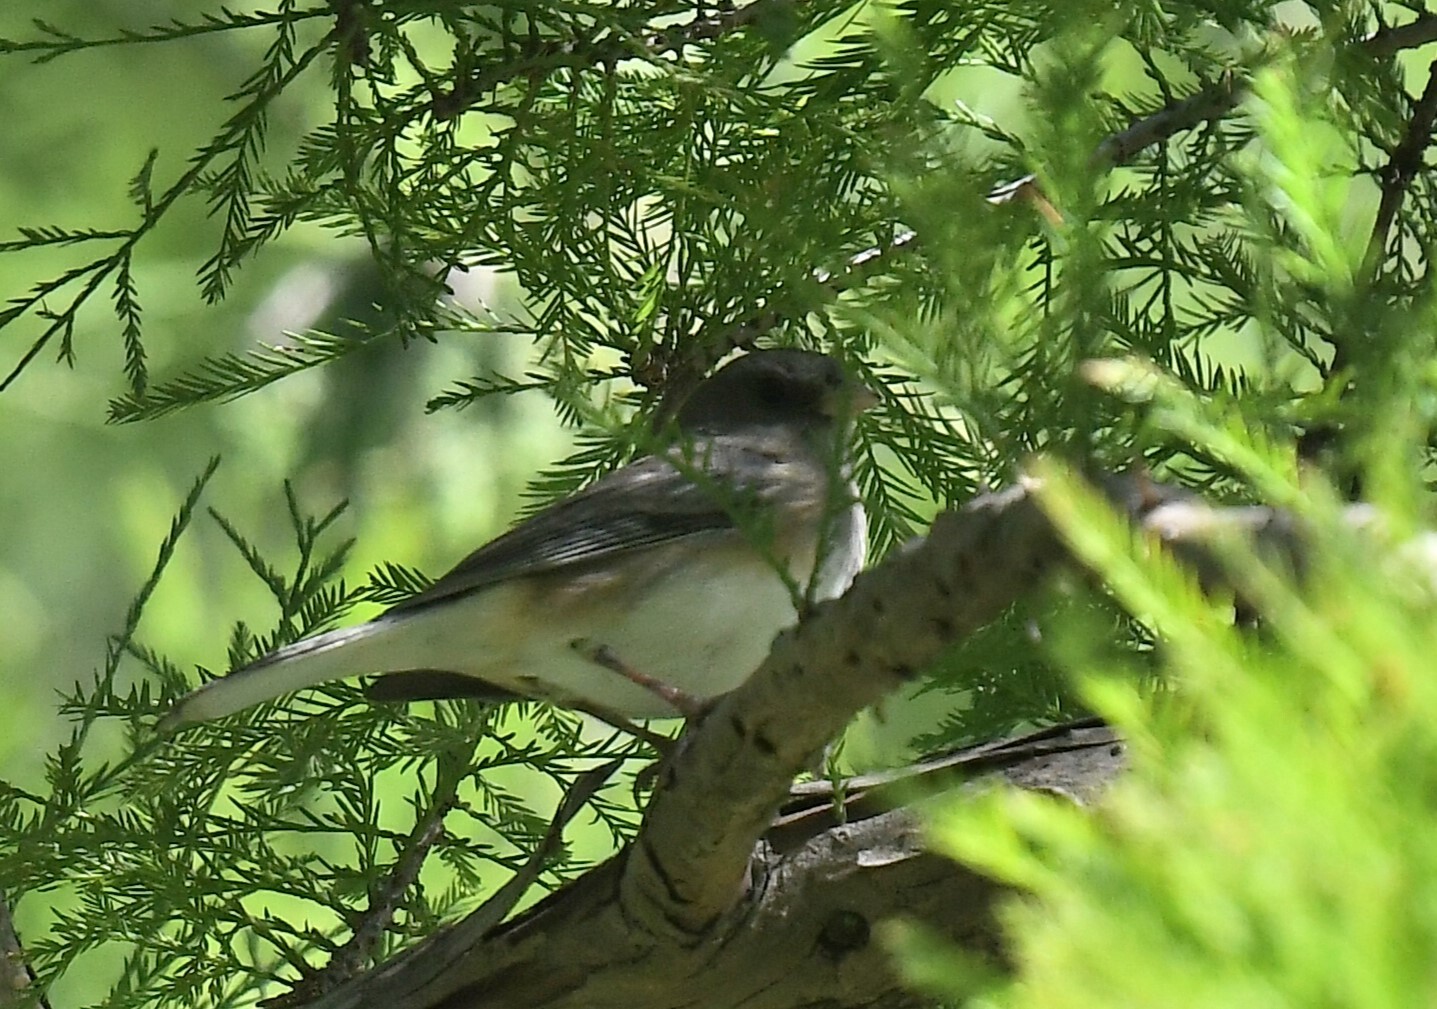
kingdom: Animalia
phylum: Chordata
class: Aves
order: Passeriformes
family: Passerellidae
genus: Junco
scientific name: Junco hyemalis
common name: Dark-eyed junco
